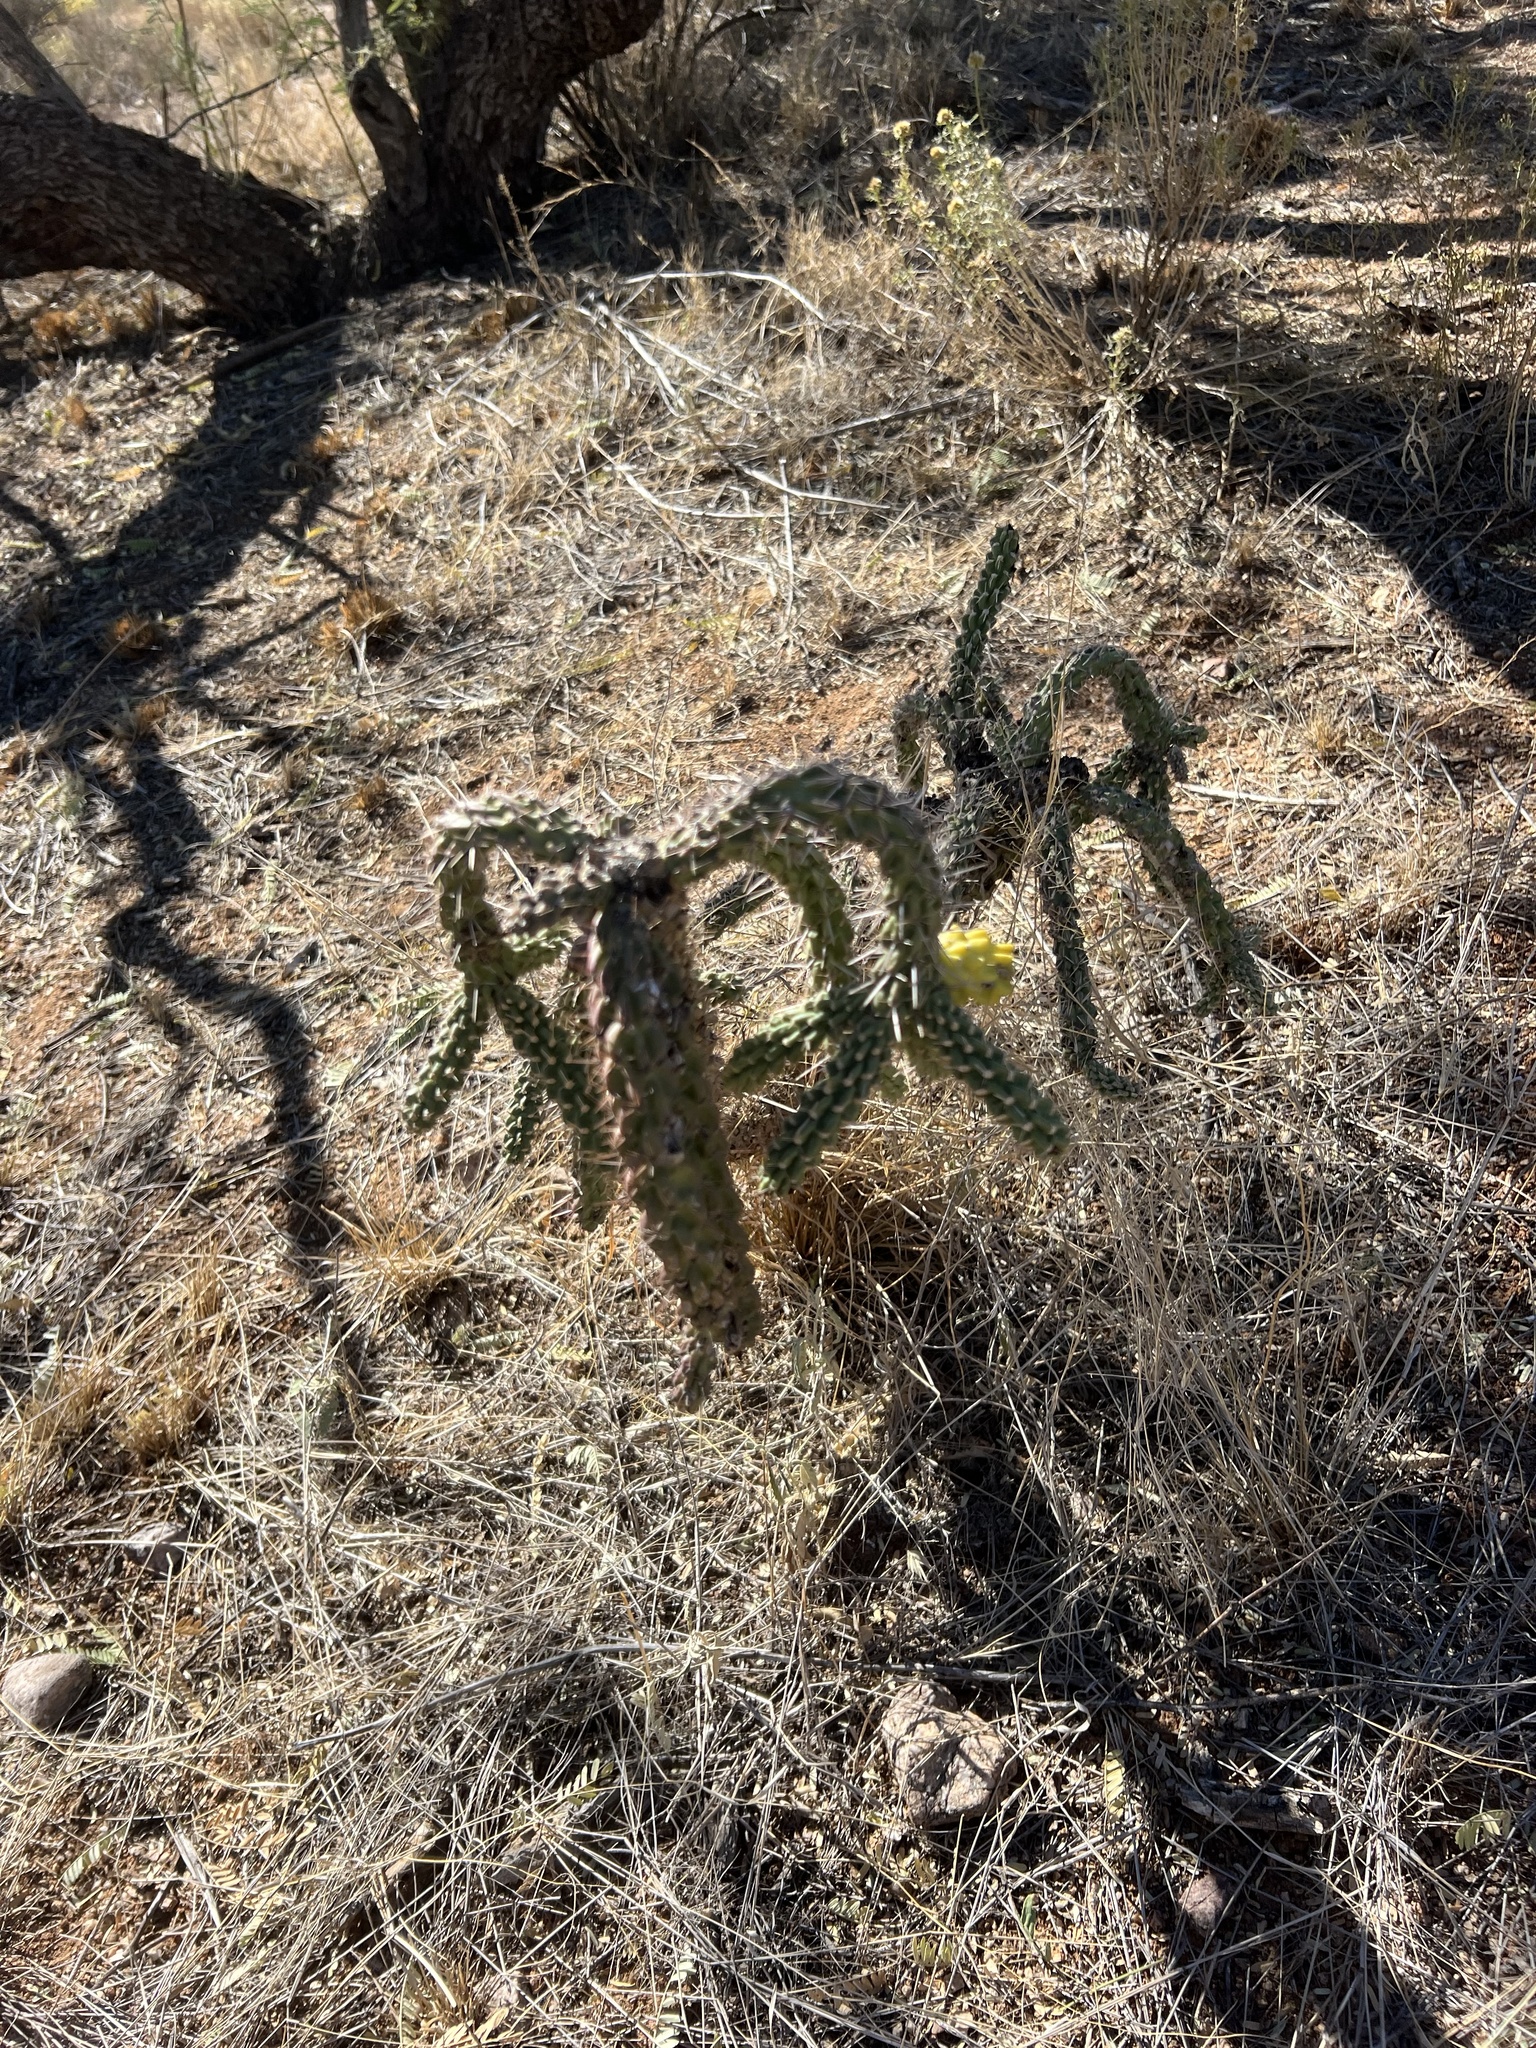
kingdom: Plantae
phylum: Tracheophyta
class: Magnoliopsida
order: Caryophyllales
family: Cactaceae
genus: Cylindropuntia
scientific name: Cylindropuntia imbricata
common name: Candelabrum cactus
